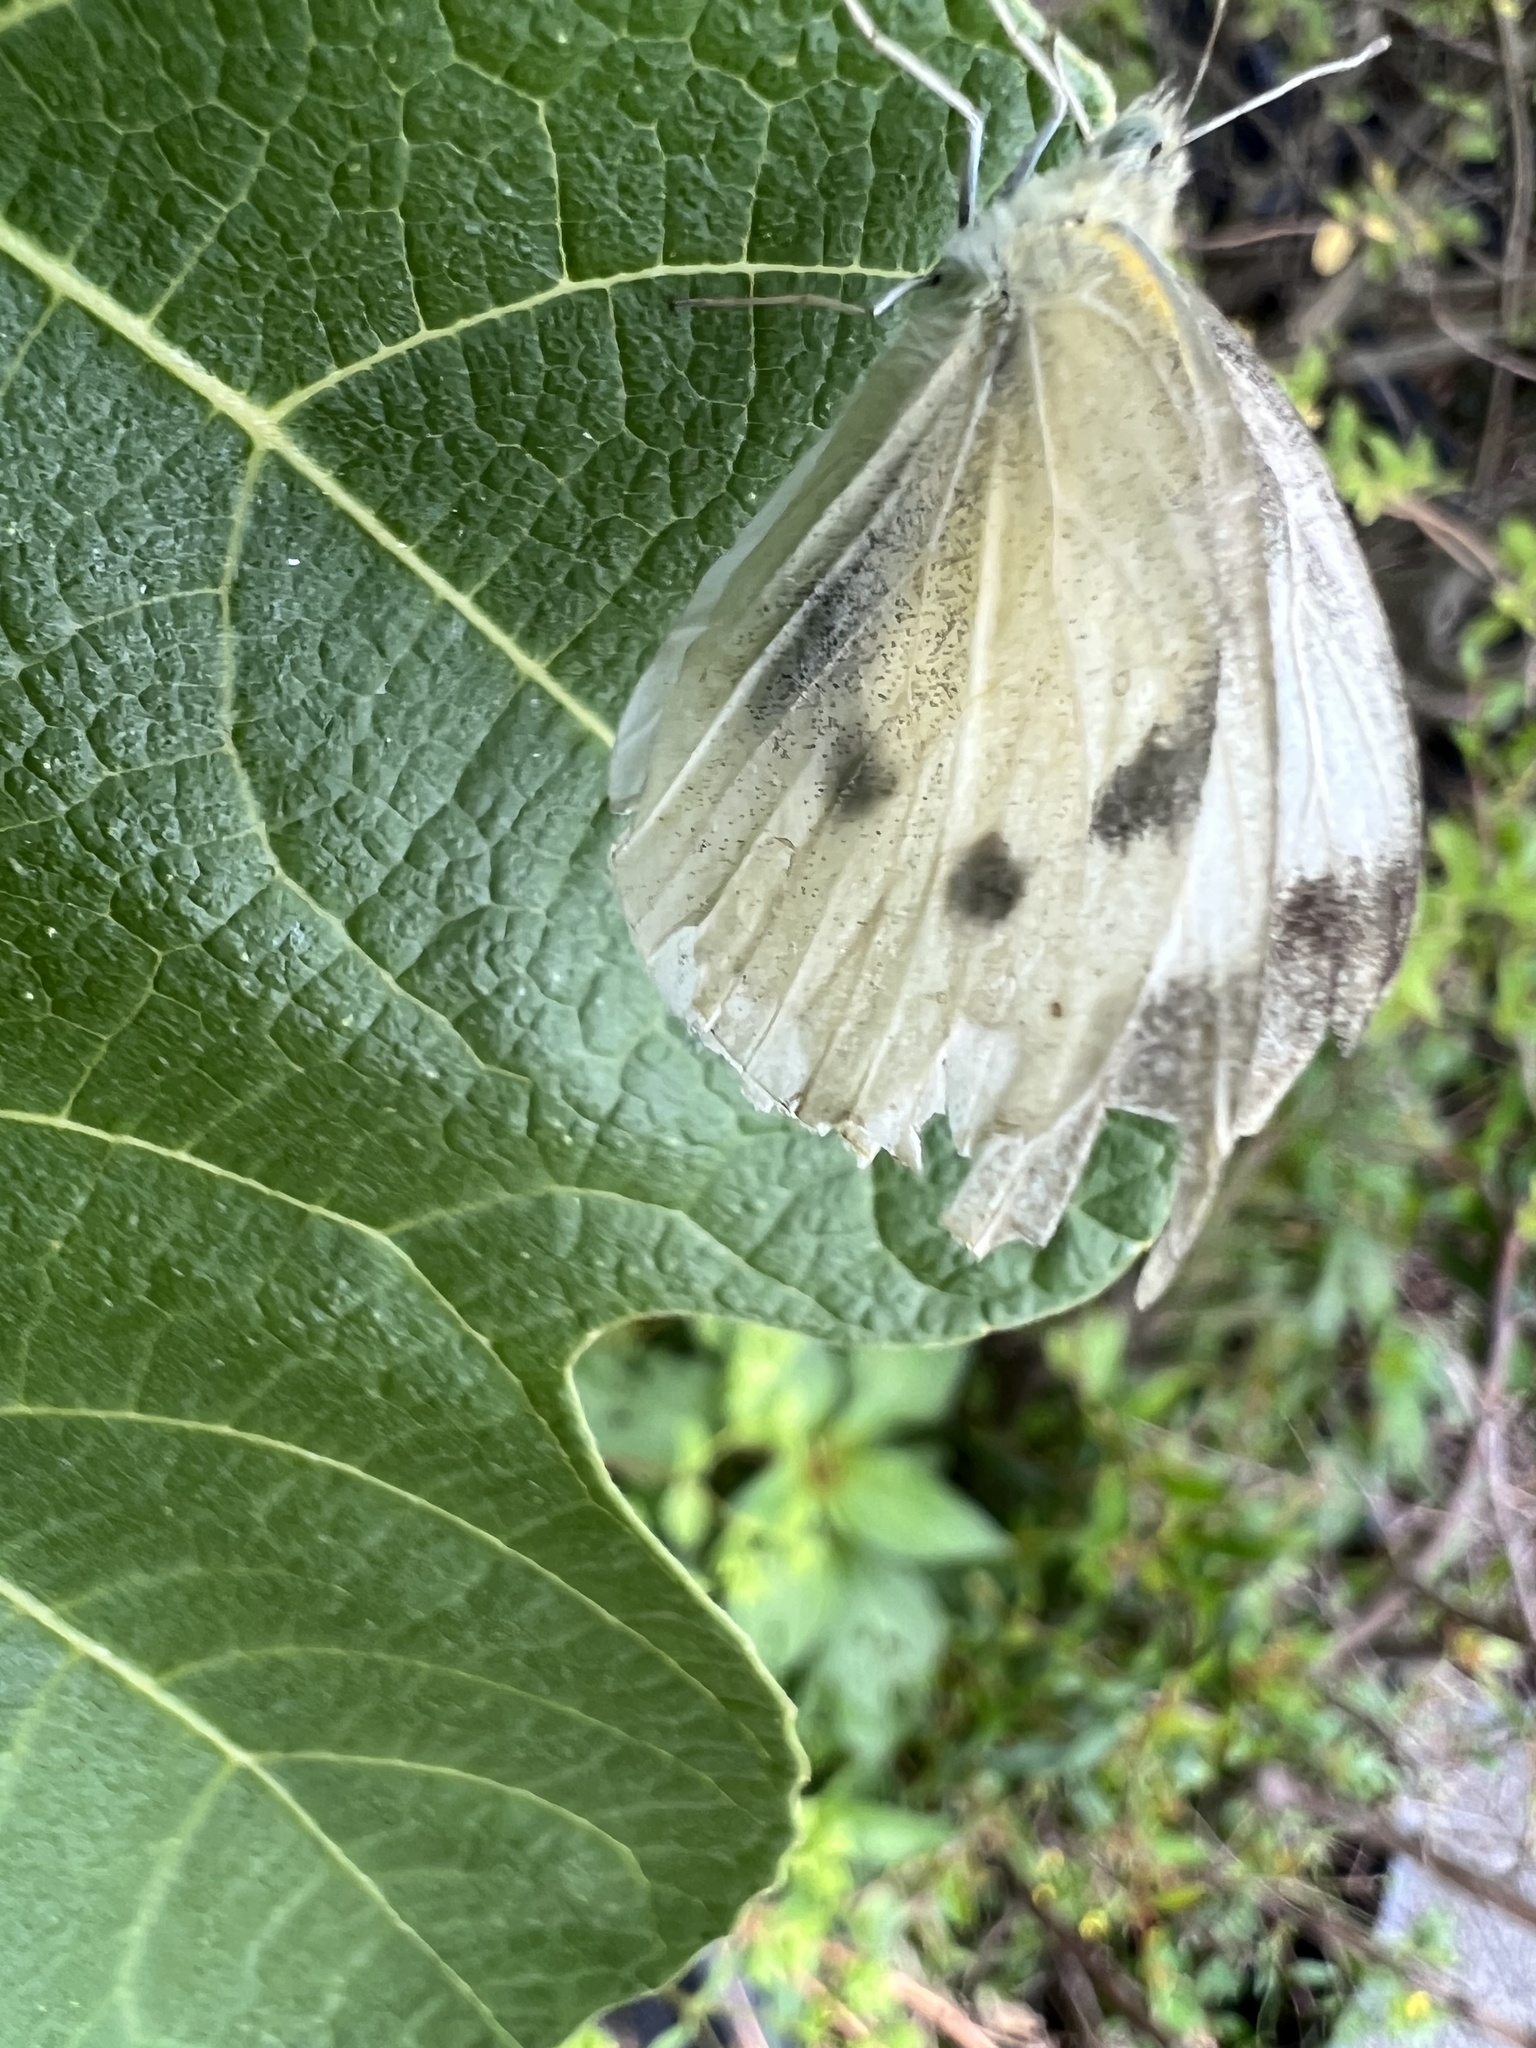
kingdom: Animalia
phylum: Arthropoda
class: Insecta
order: Lepidoptera
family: Pieridae
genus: Pieris
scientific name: Pieris rapae
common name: Small white
